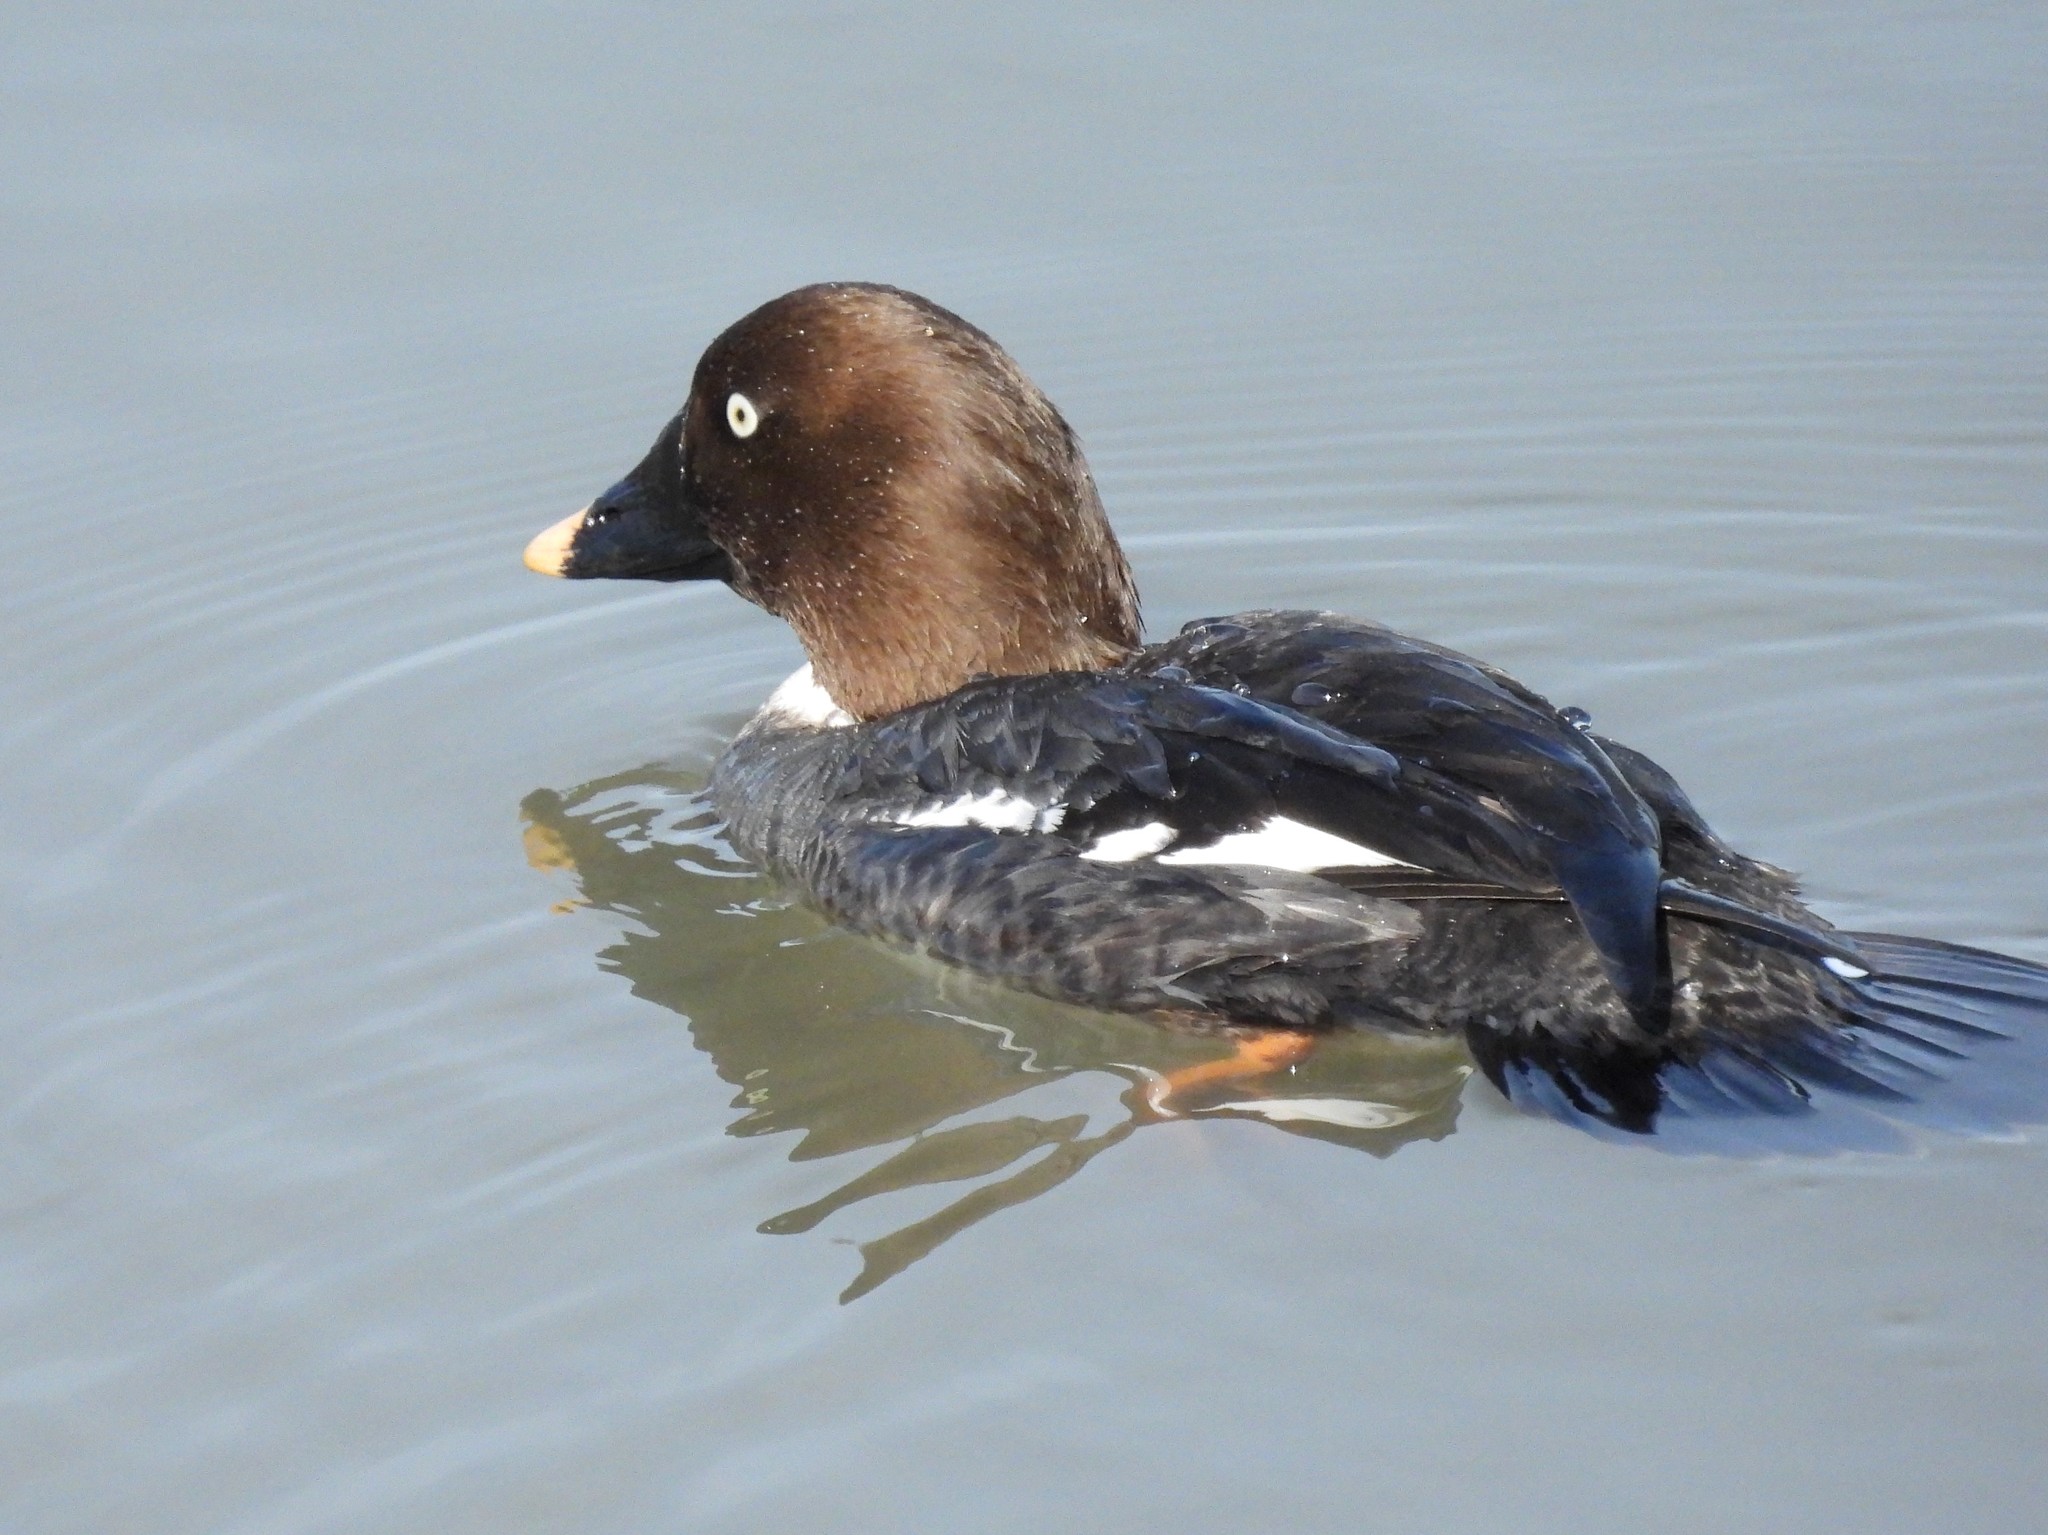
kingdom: Animalia
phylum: Chordata
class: Aves
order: Anseriformes
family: Anatidae
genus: Bucephala
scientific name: Bucephala clangula
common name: Common goldeneye
